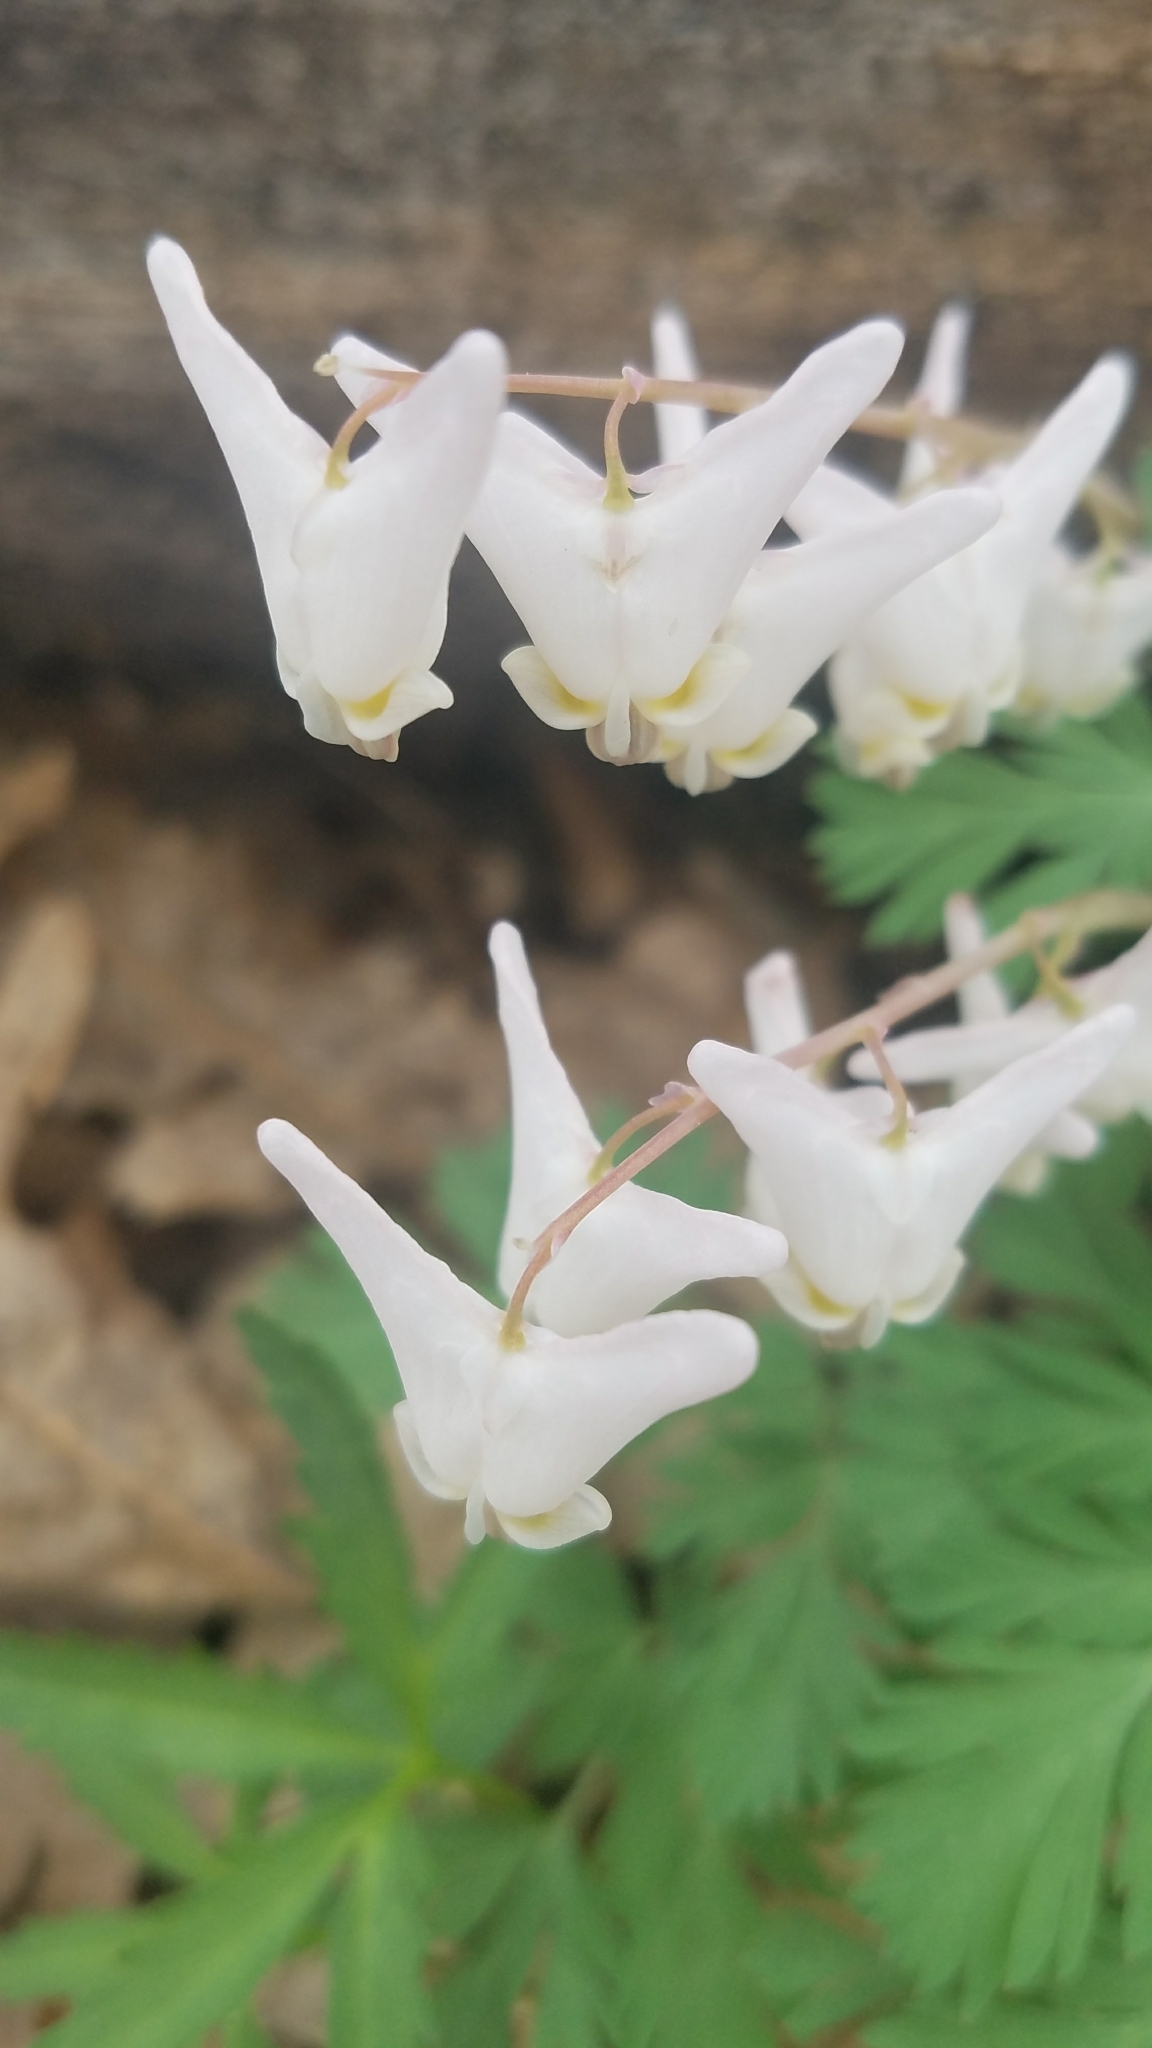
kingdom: Plantae
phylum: Tracheophyta
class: Magnoliopsida
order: Ranunculales
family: Papaveraceae
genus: Dicentra
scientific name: Dicentra cucullaria
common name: Dutchman's breeches
